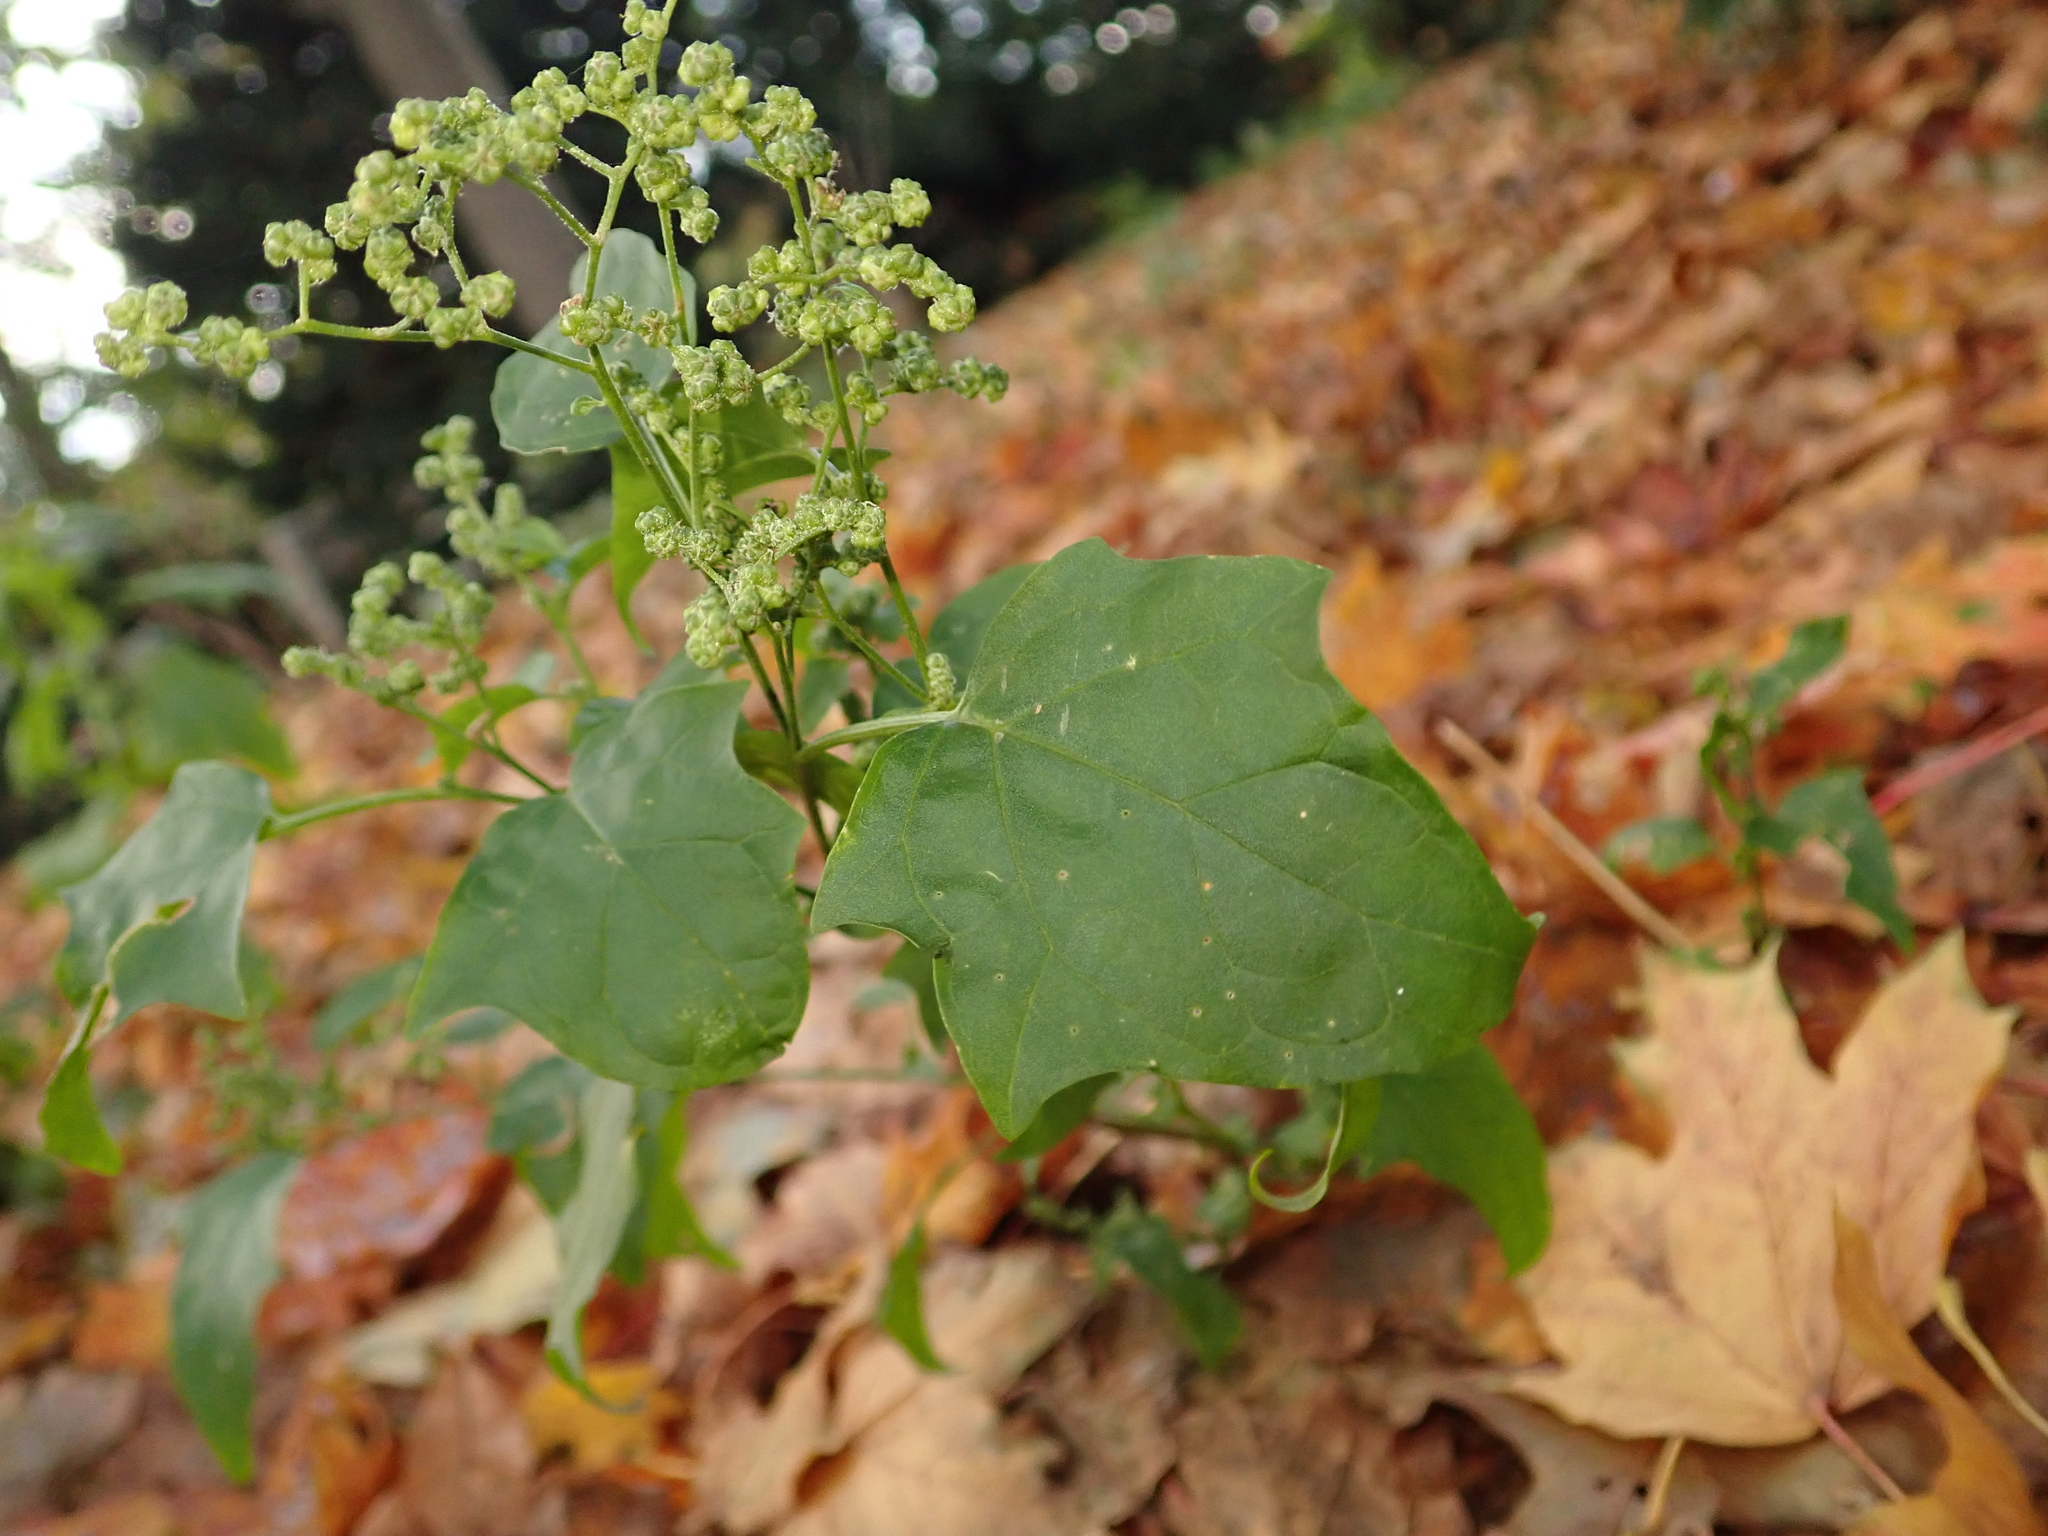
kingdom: Plantae
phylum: Tracheophyta
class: Magnoliopsida
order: Caryophyllales
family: Amaranthaceae
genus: Chenopodiastrum
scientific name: Chenopodiastrum hybridum
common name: Mapleleaf goosefoot
